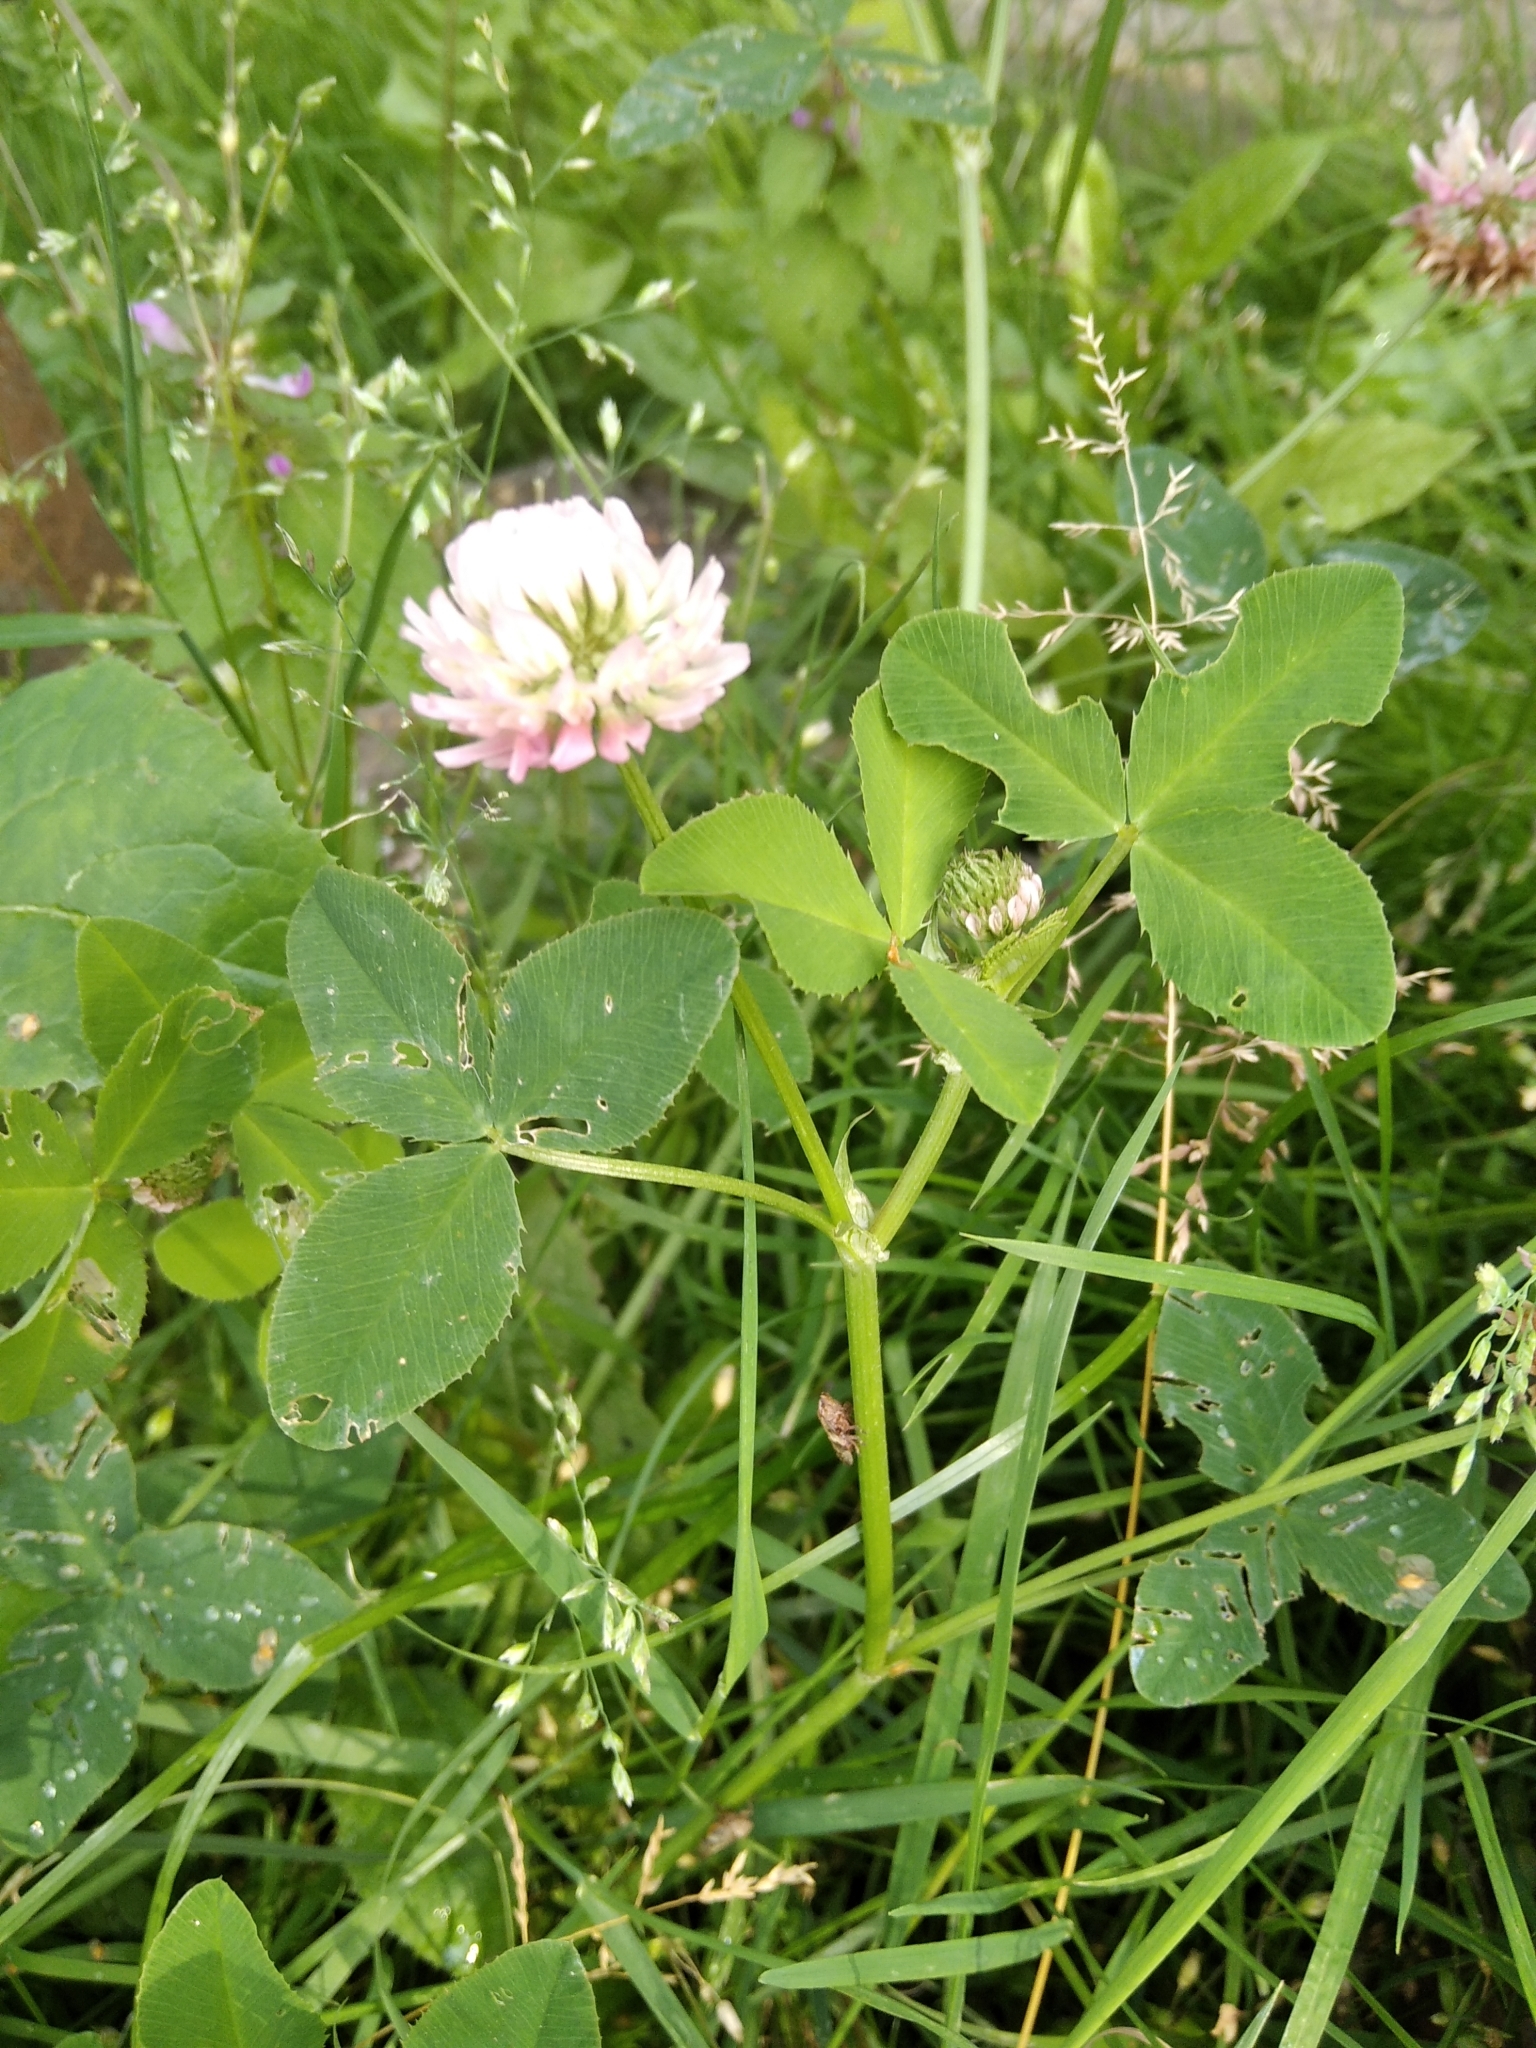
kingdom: Plantae
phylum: Tracheophyta
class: Magnoliopsida
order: Fabales
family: Fabaceae
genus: Trifolium
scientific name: Trifolium hybridum
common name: Alsike clover
